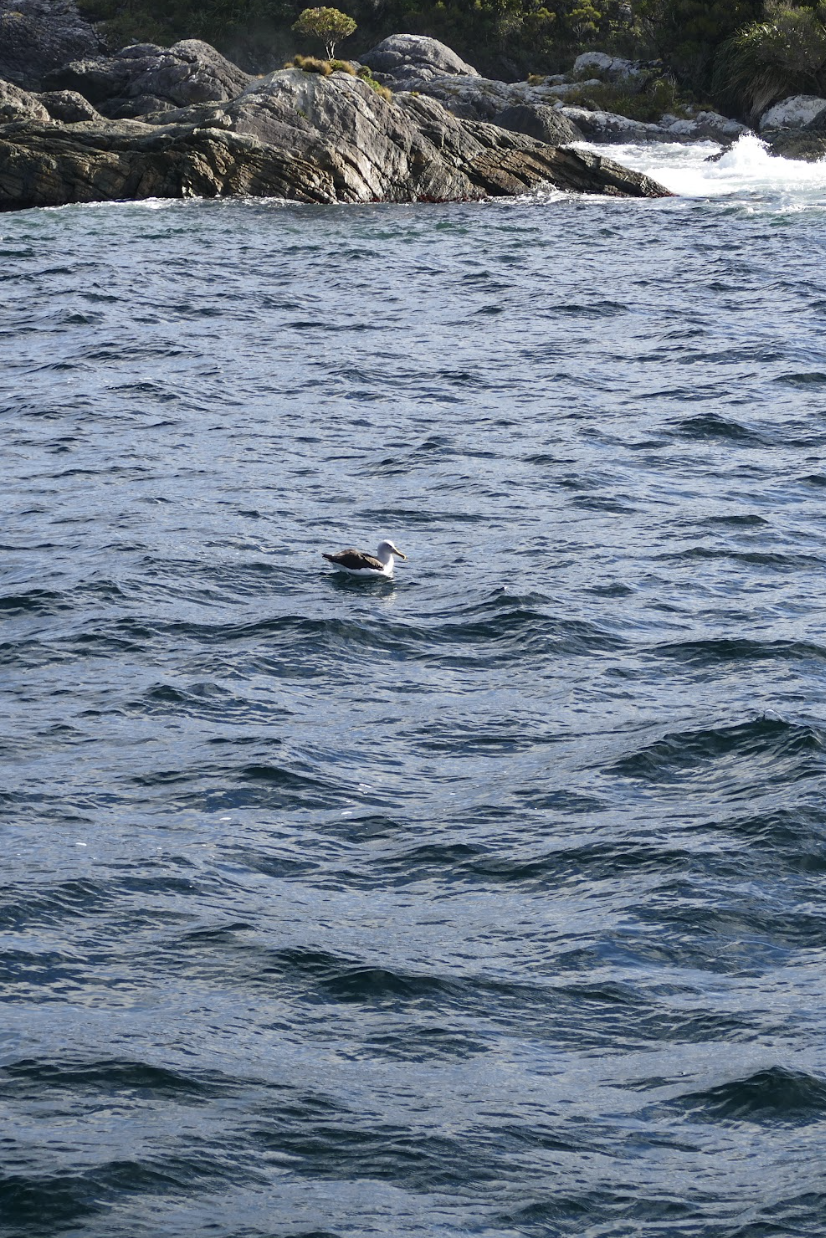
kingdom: Animalia
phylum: Chordata
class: Aves
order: Procellariiformes
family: Diomedeidae
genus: Thalassarche
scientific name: Thalassarche bulleri
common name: Buller's albatross
